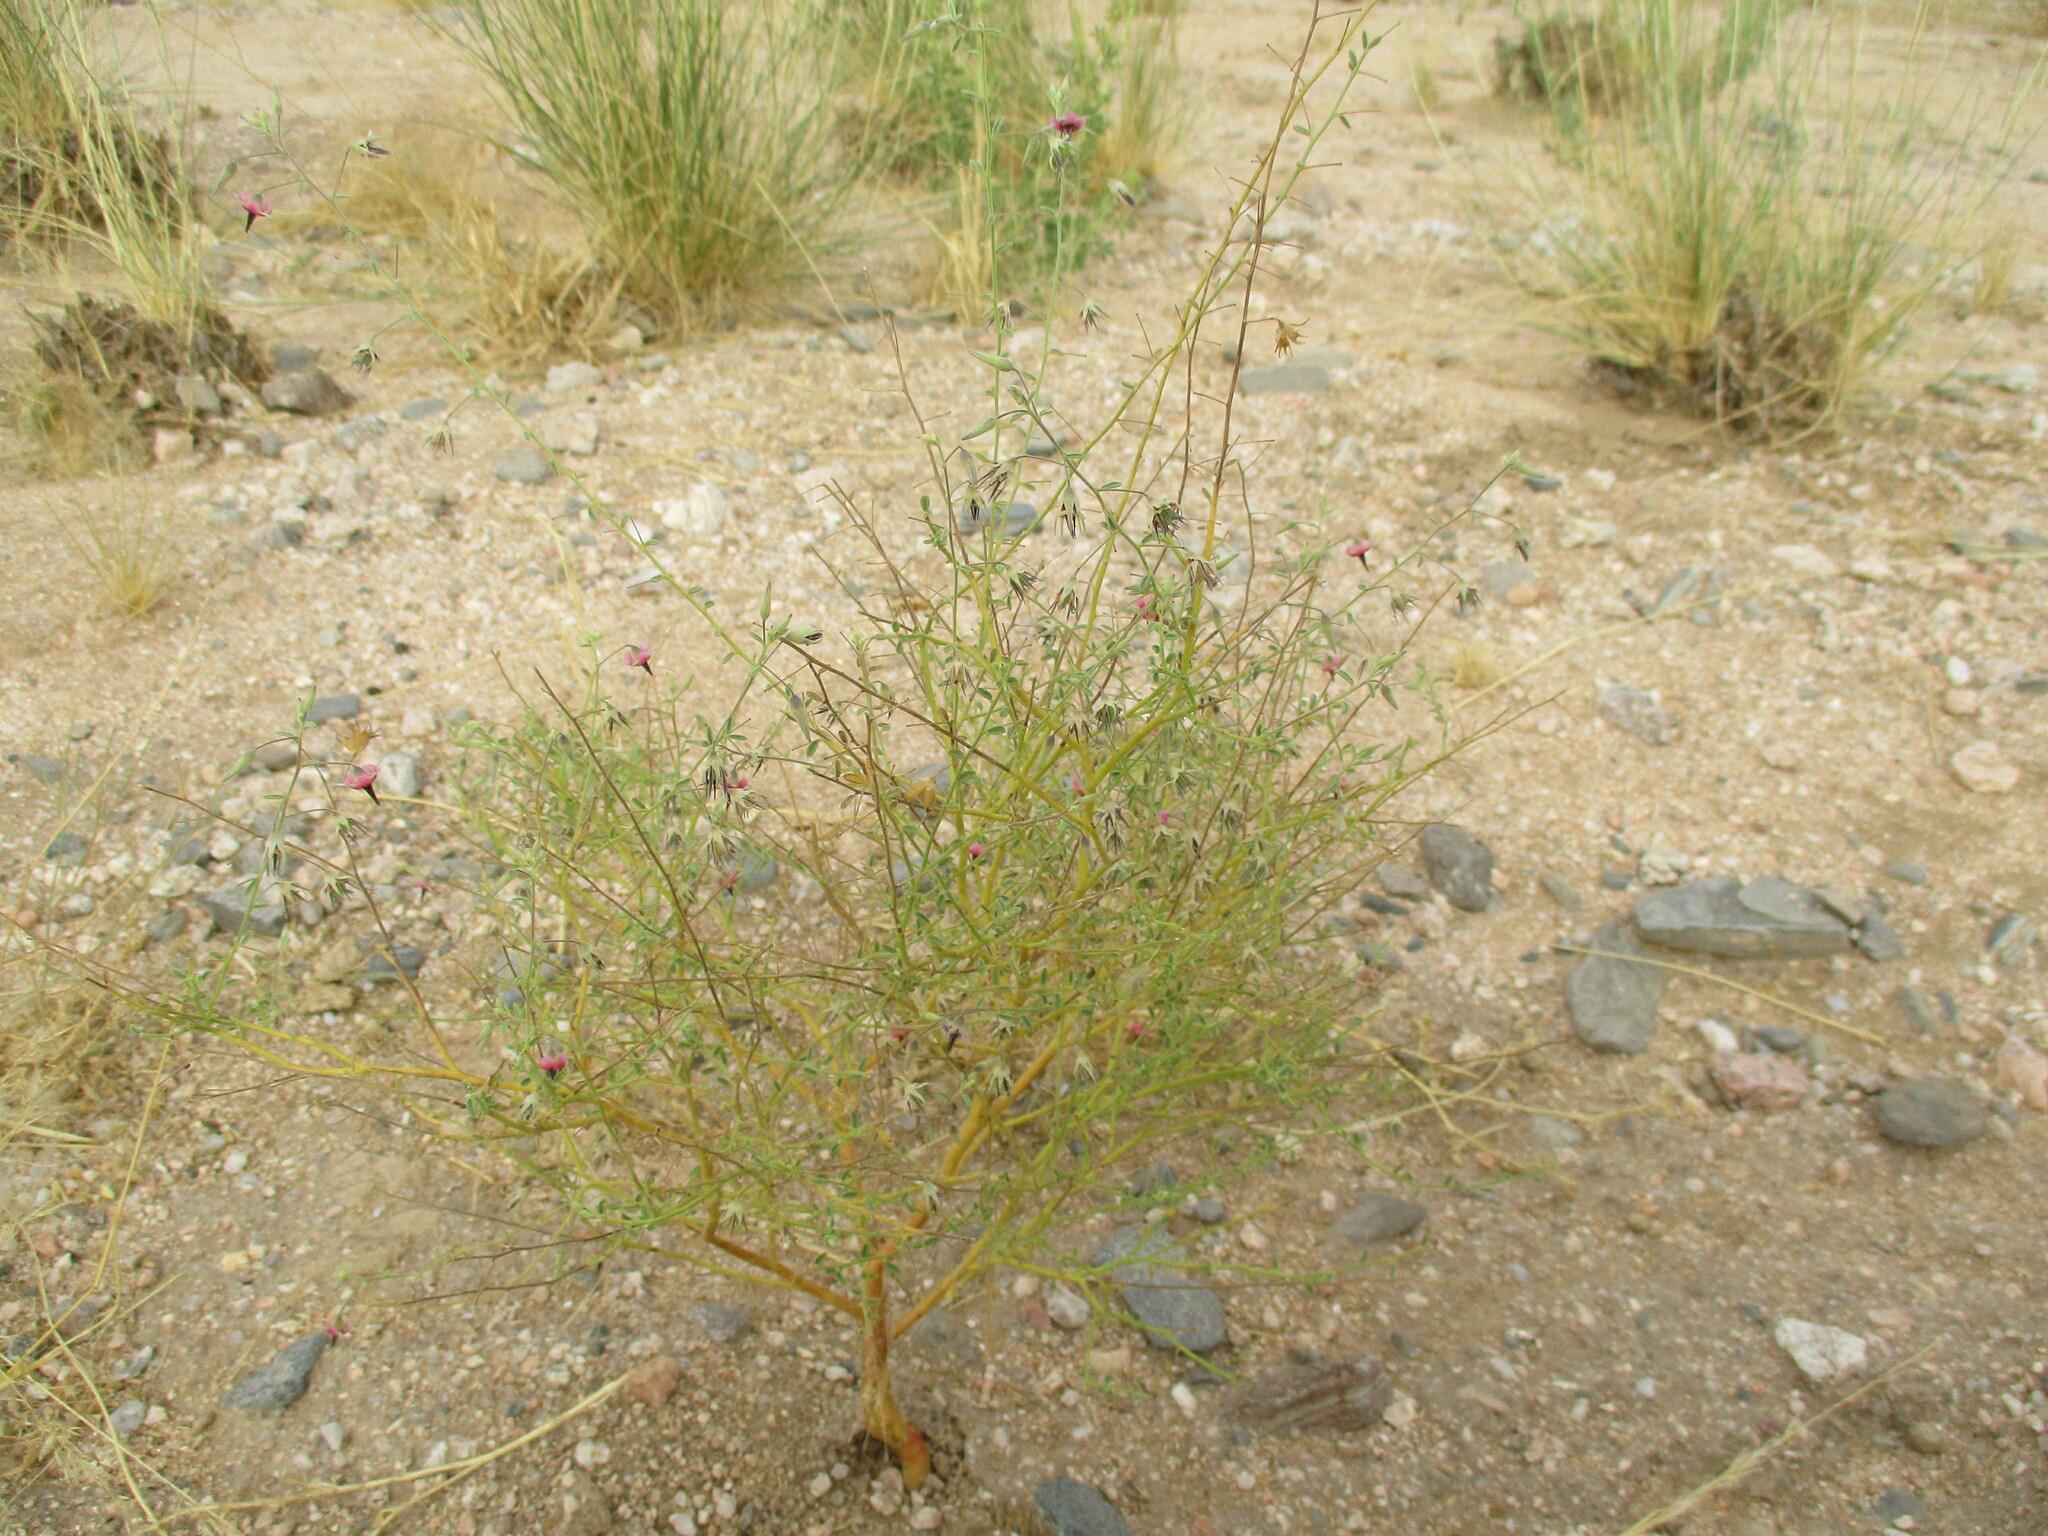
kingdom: Plantae
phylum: Tracheophyta
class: Magnoliopsida
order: Malvales
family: Malvaceae
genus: Hermannia
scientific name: Hermannia solaniflora
